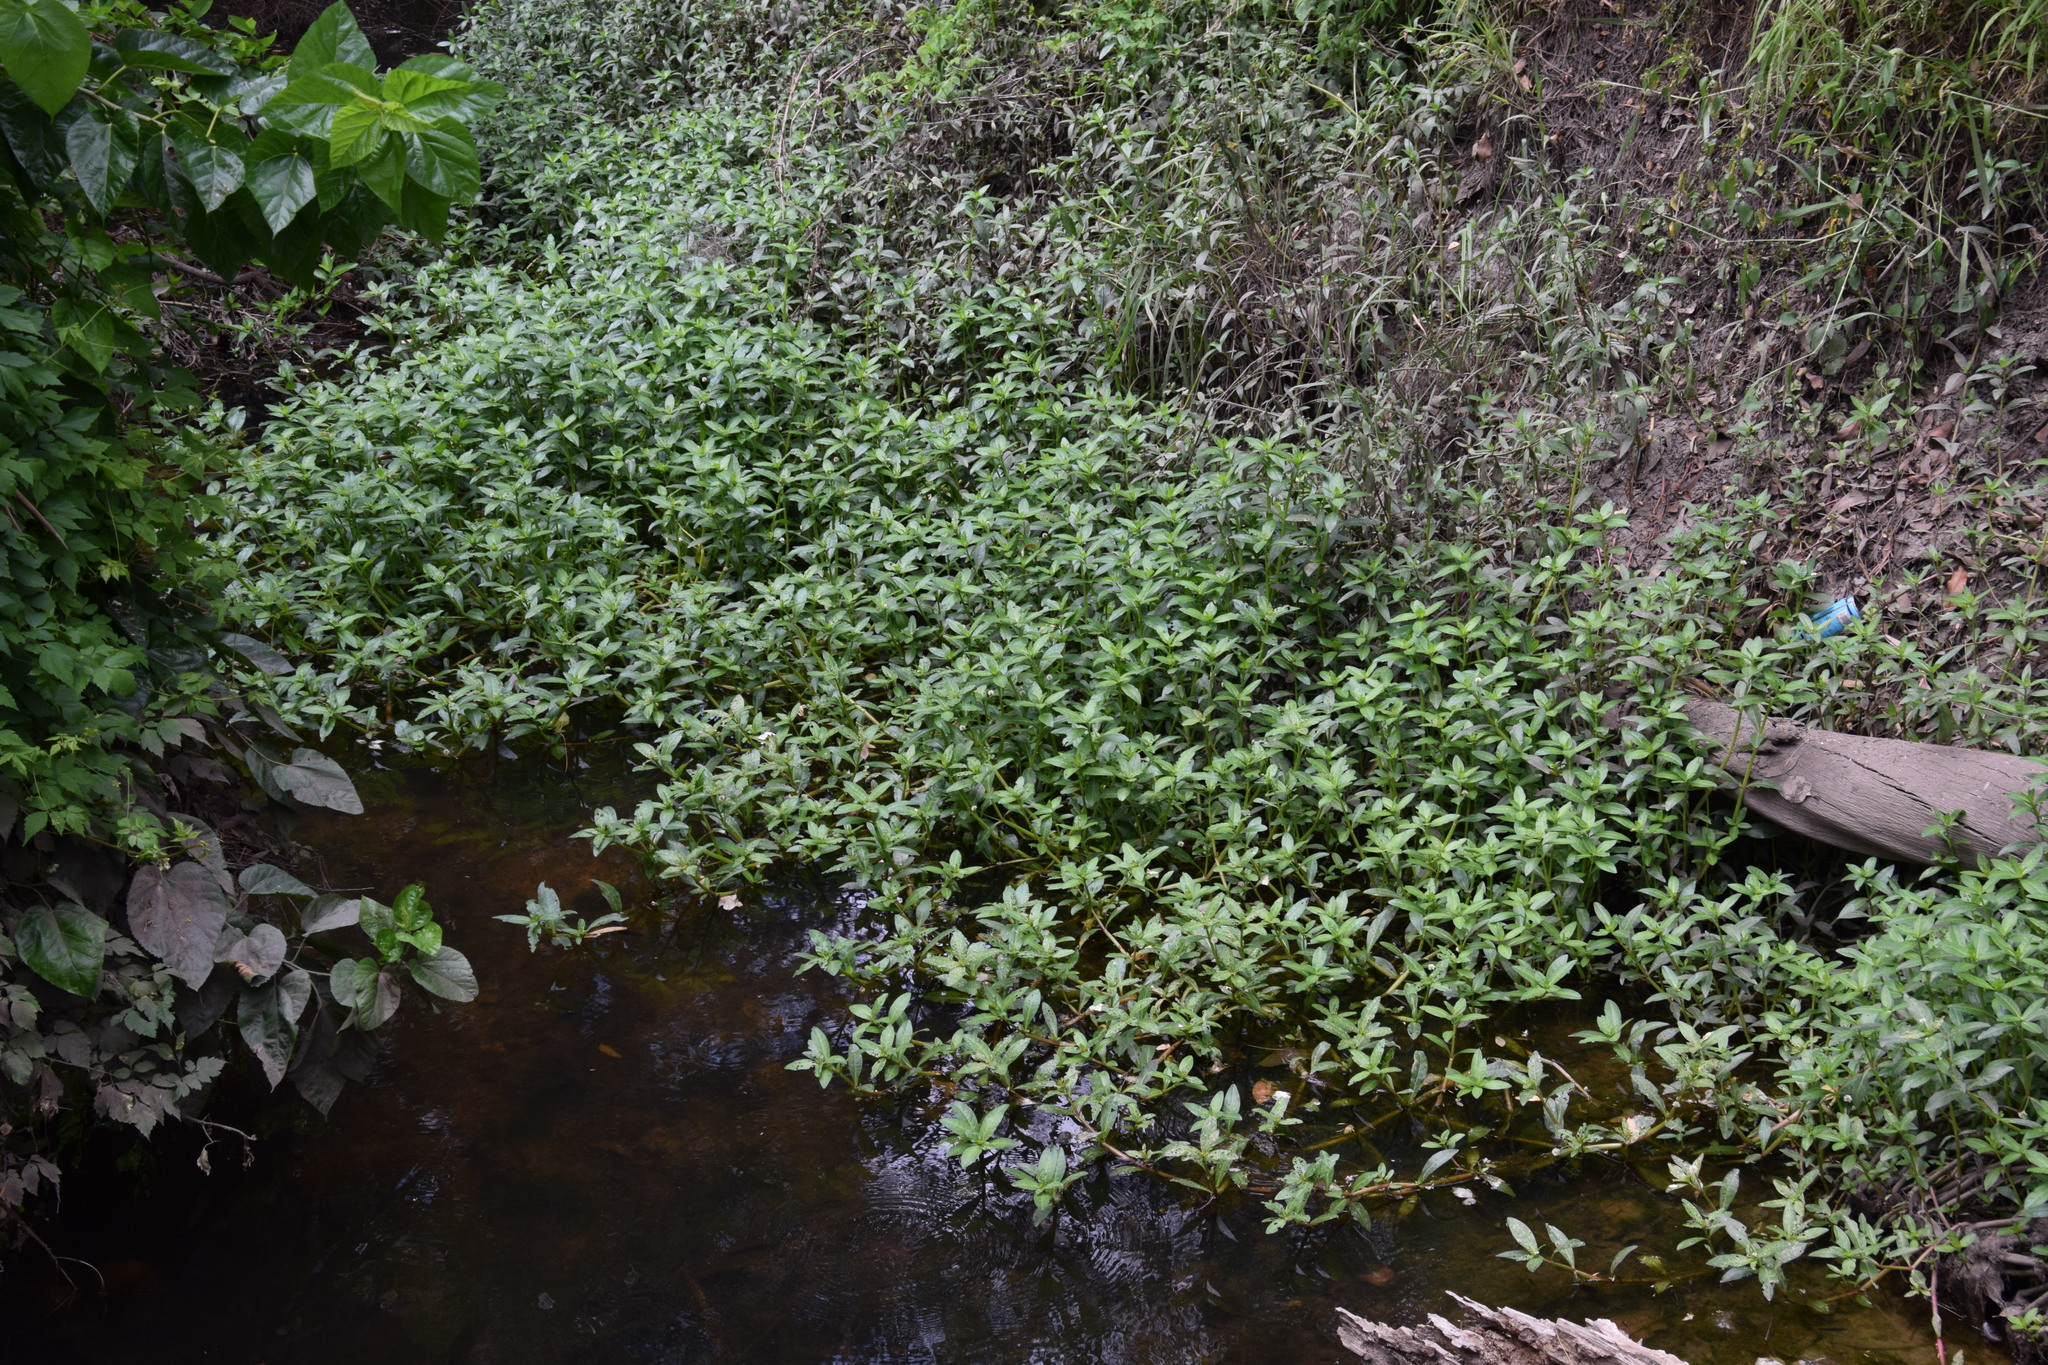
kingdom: Plantae
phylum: Tracheophyta
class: Magnoliopsida
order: Caryophyllales
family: Amaranthaceae
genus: Alternanthera
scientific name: Alternanthera philoxeroides
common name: Alligatorweed
